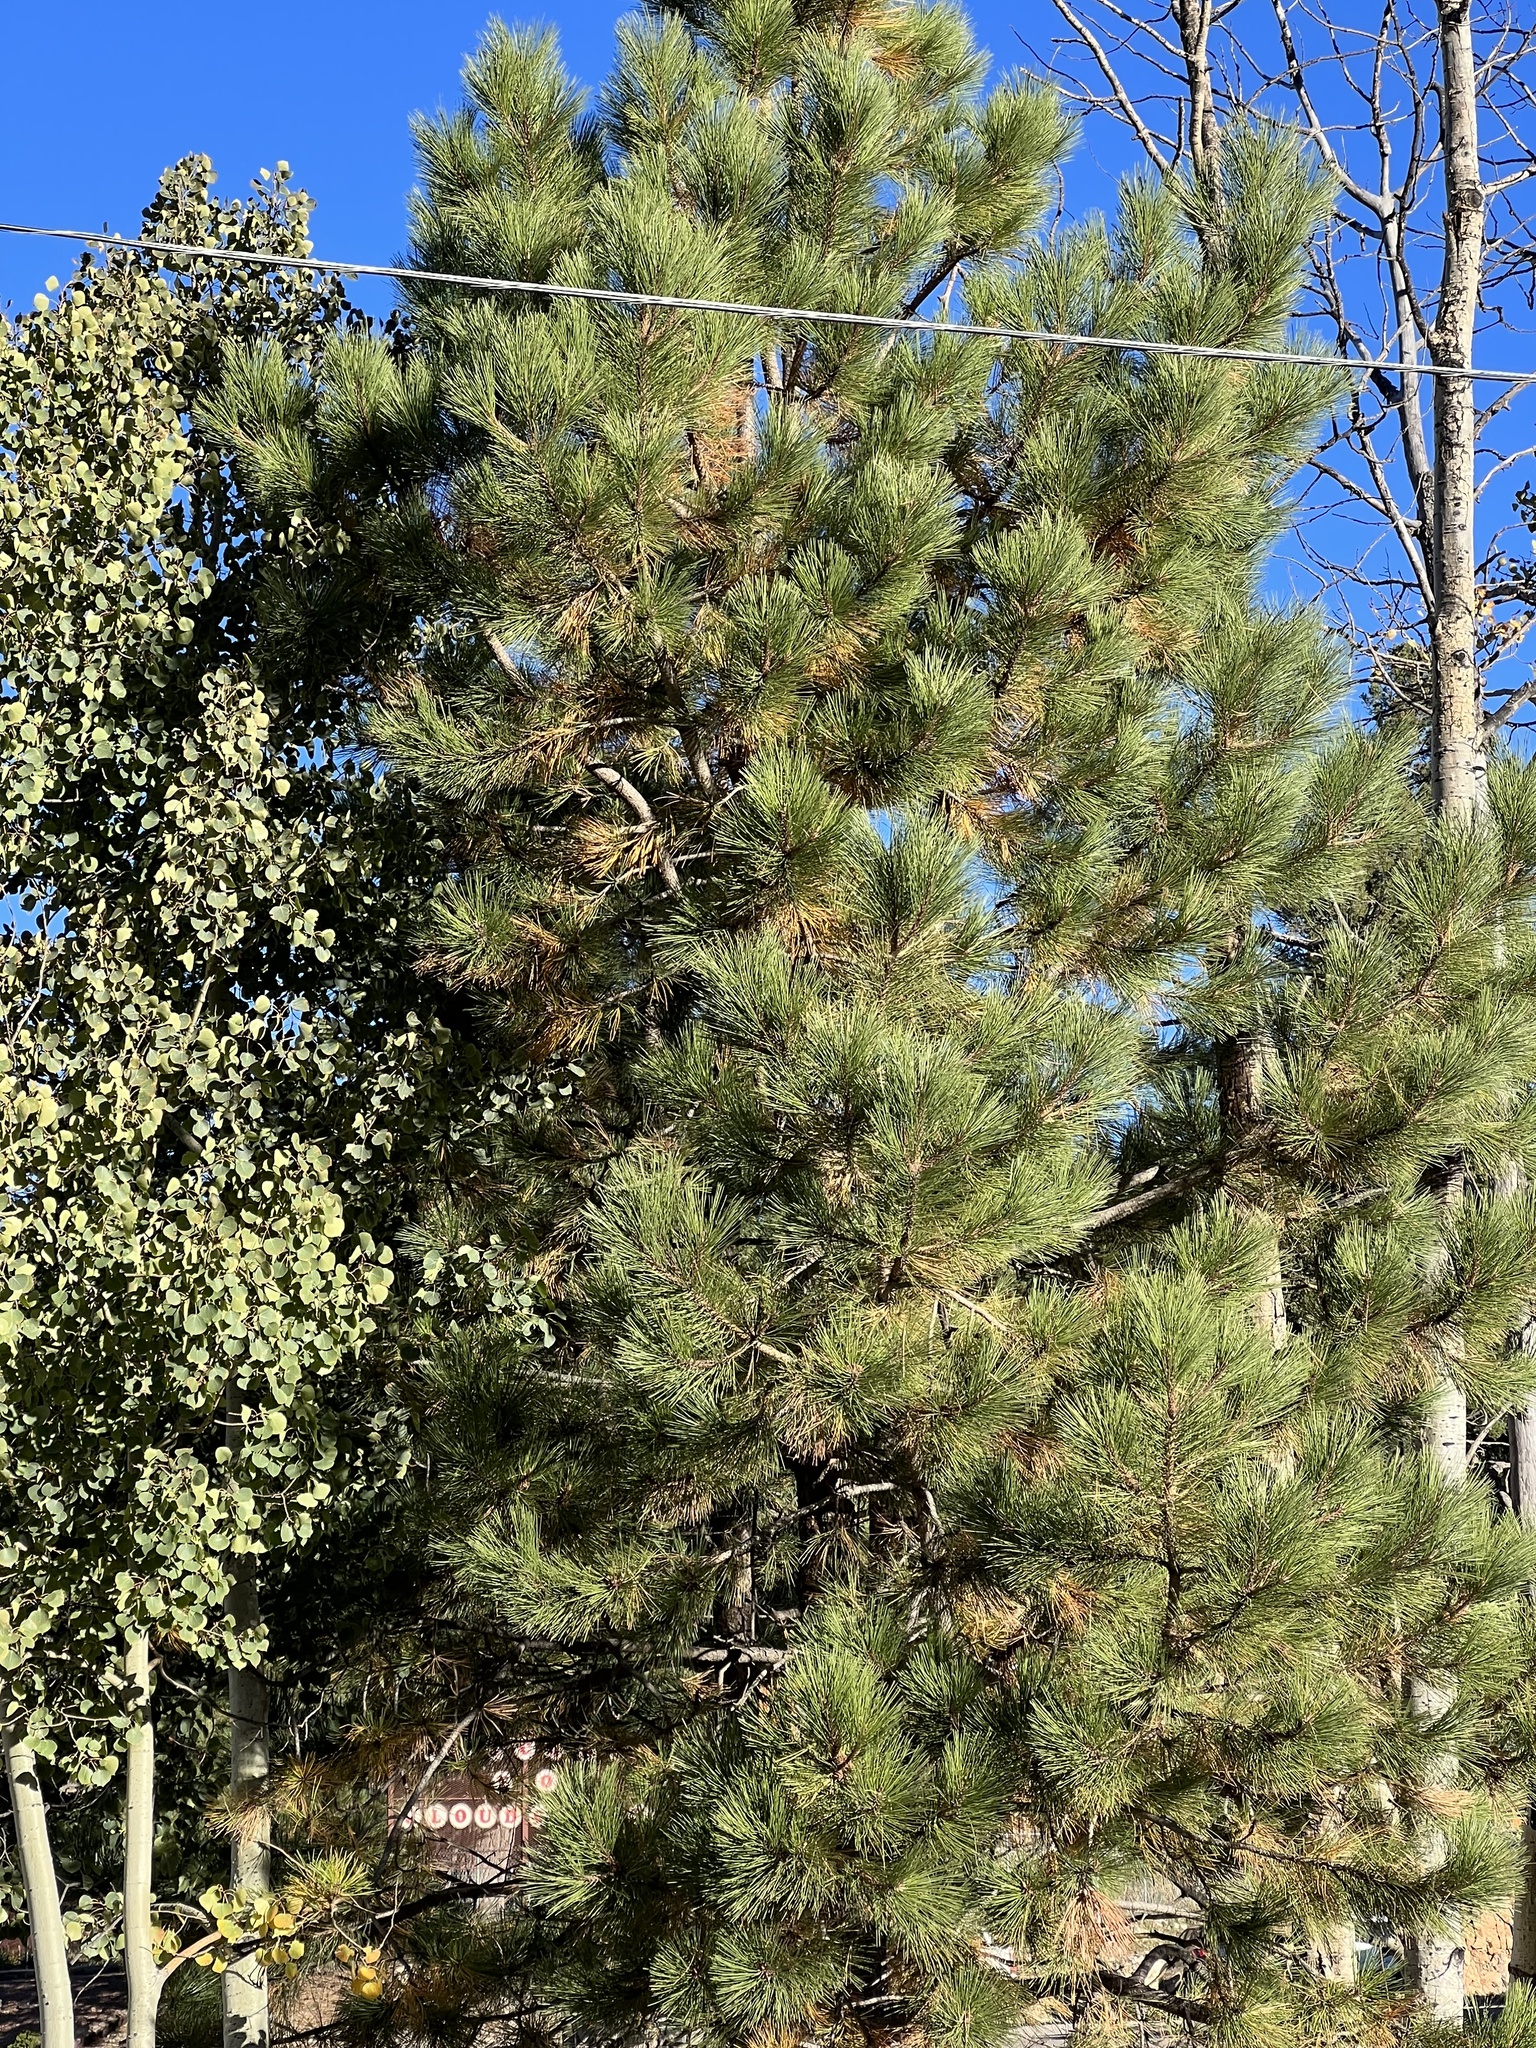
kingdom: Plantae
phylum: Tracheophyta
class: Pinopsida
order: Pinales
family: Pinaceae
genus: Pinus
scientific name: Pinus ponderosa
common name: Western yellow-pine
